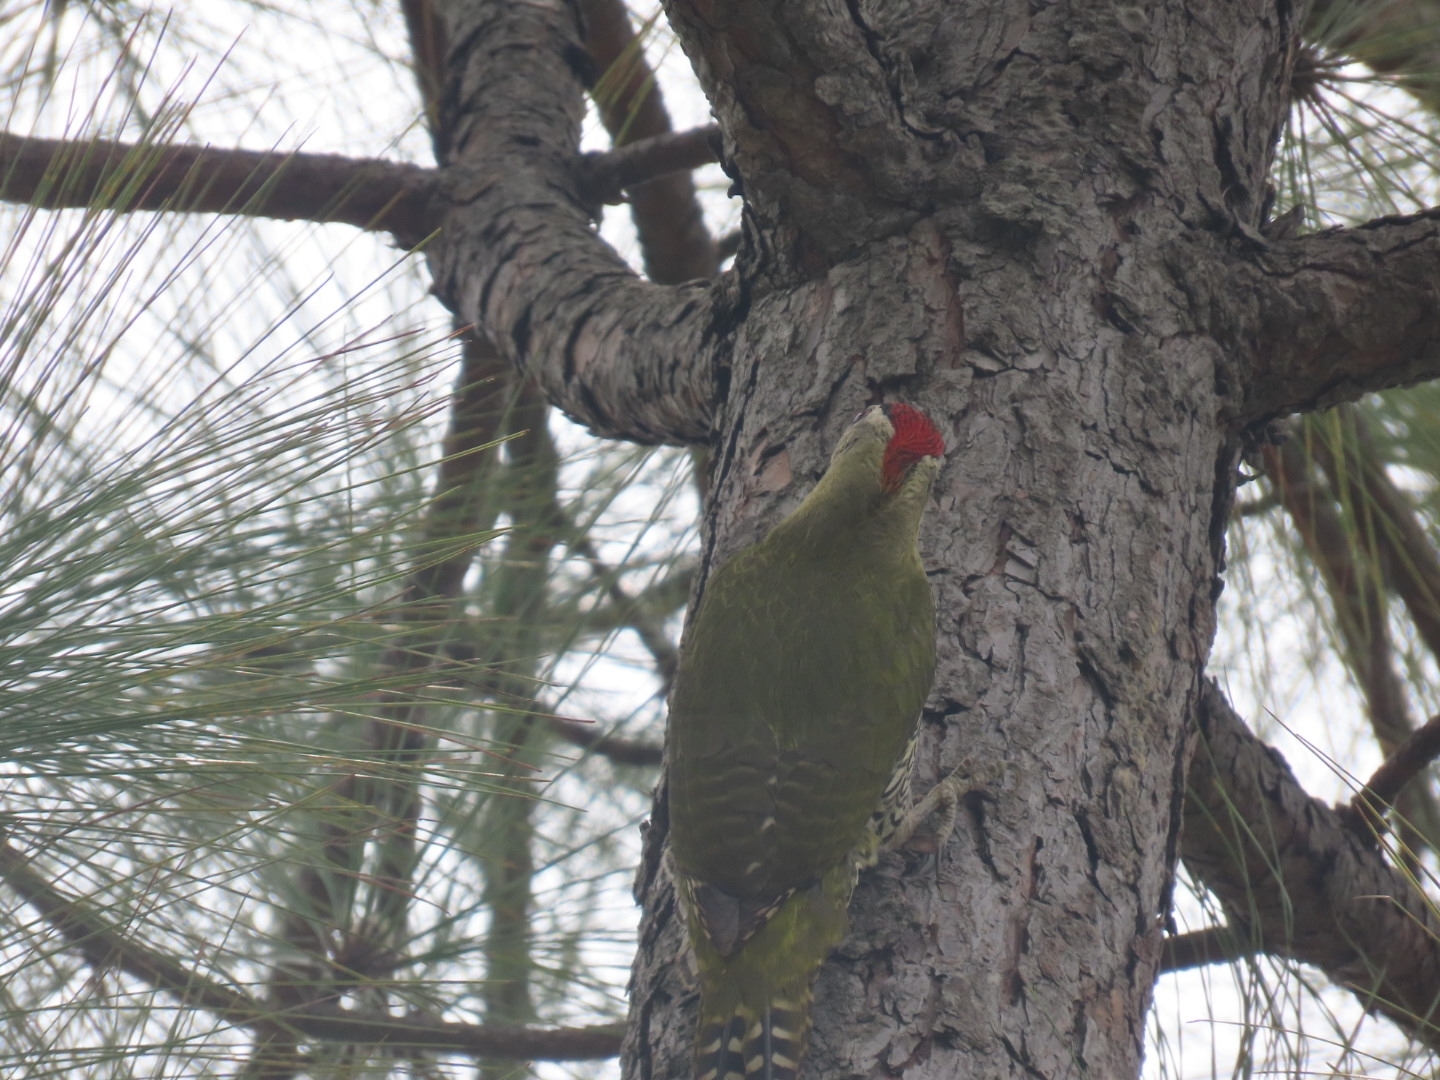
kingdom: Animalia
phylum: Chordata
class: Aves
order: Piciformes
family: Picidae
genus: Picus
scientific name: Picus squamatus
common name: Scaly-bellied woodpecker
